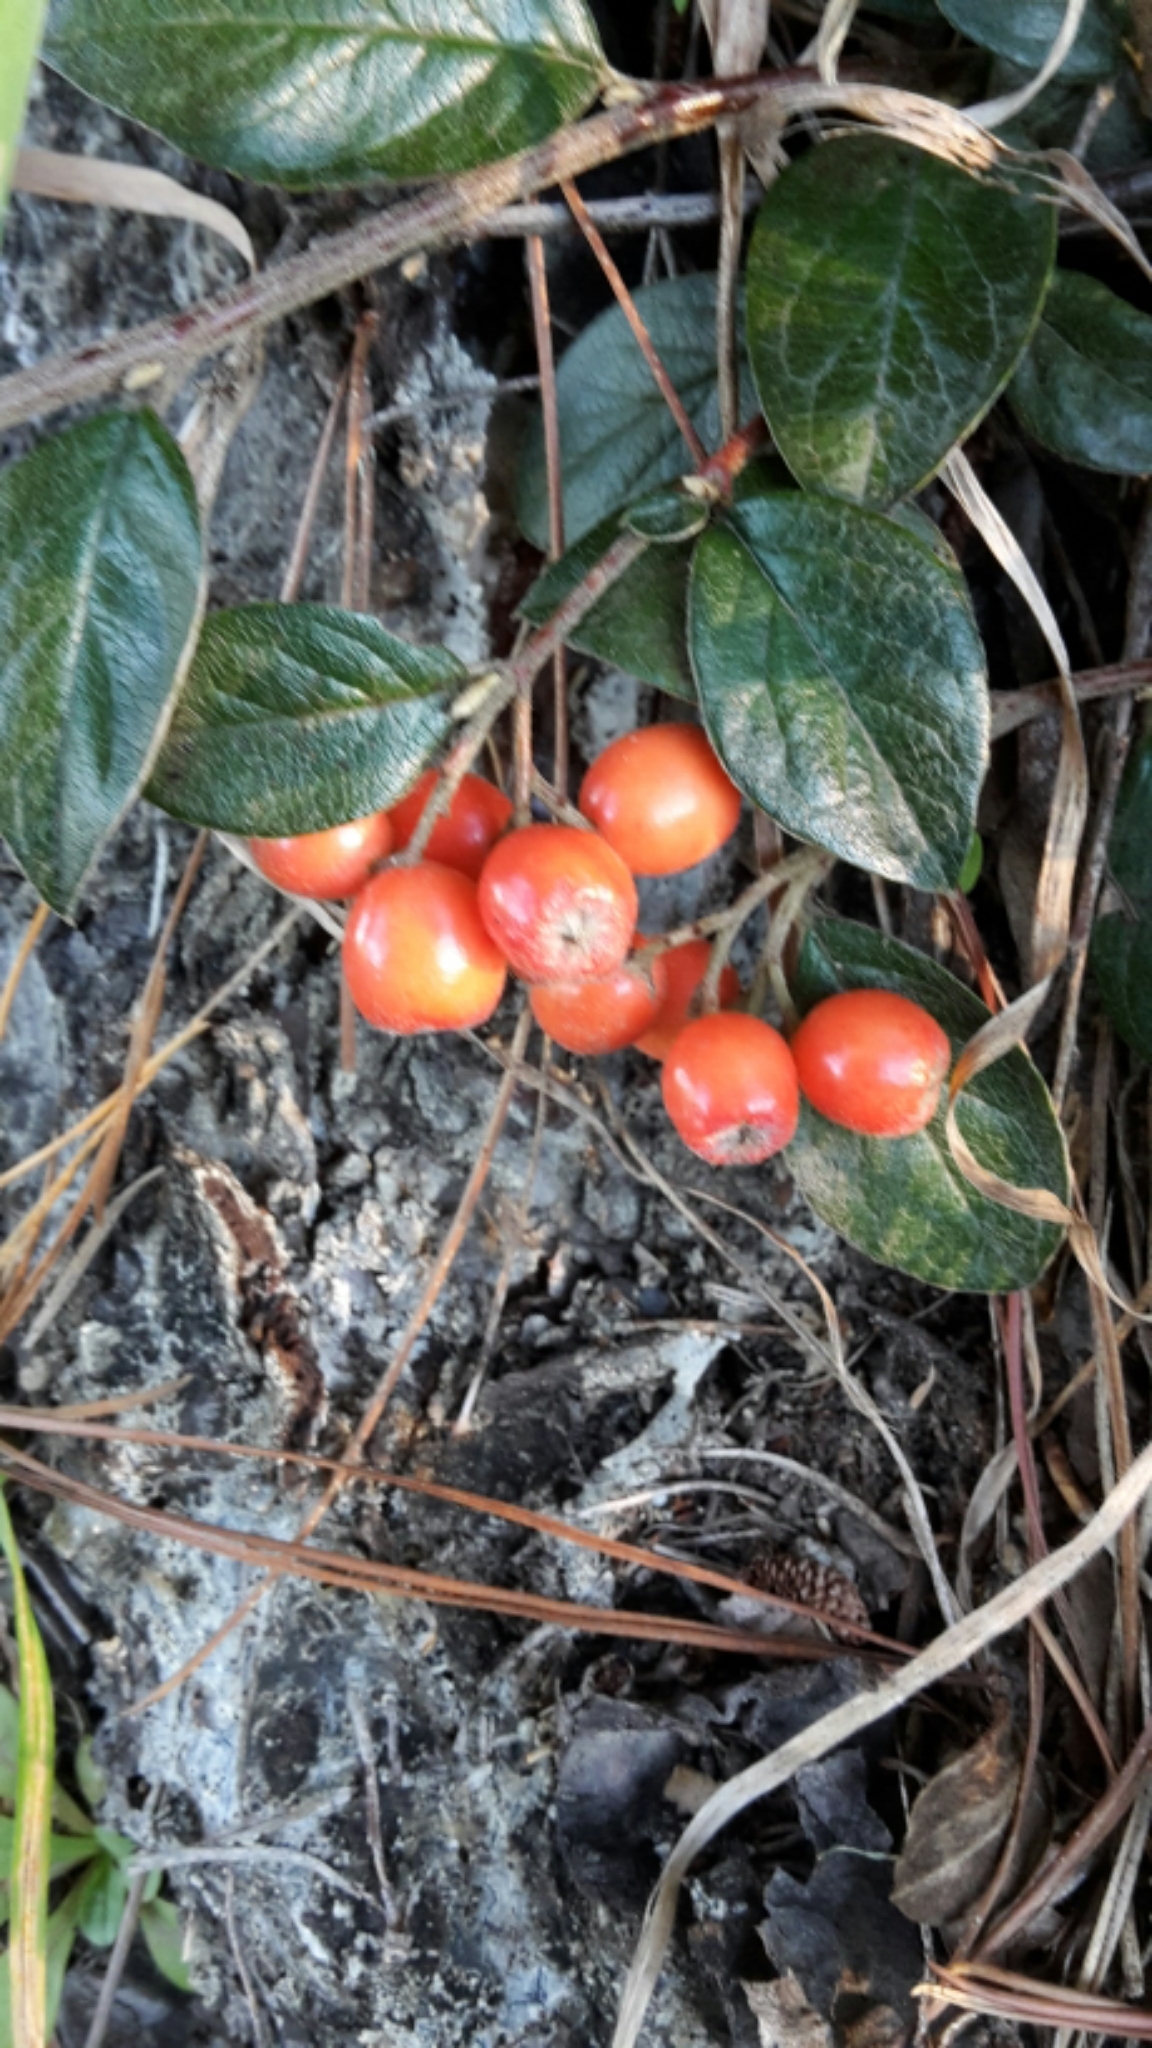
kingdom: Plantae
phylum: Tracheophyta
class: Magnoliopsida
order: Rosales
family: Rosaceae
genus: Cotoneaster
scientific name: Cotoneaster simonsii
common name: Himalayan cotoneaster
